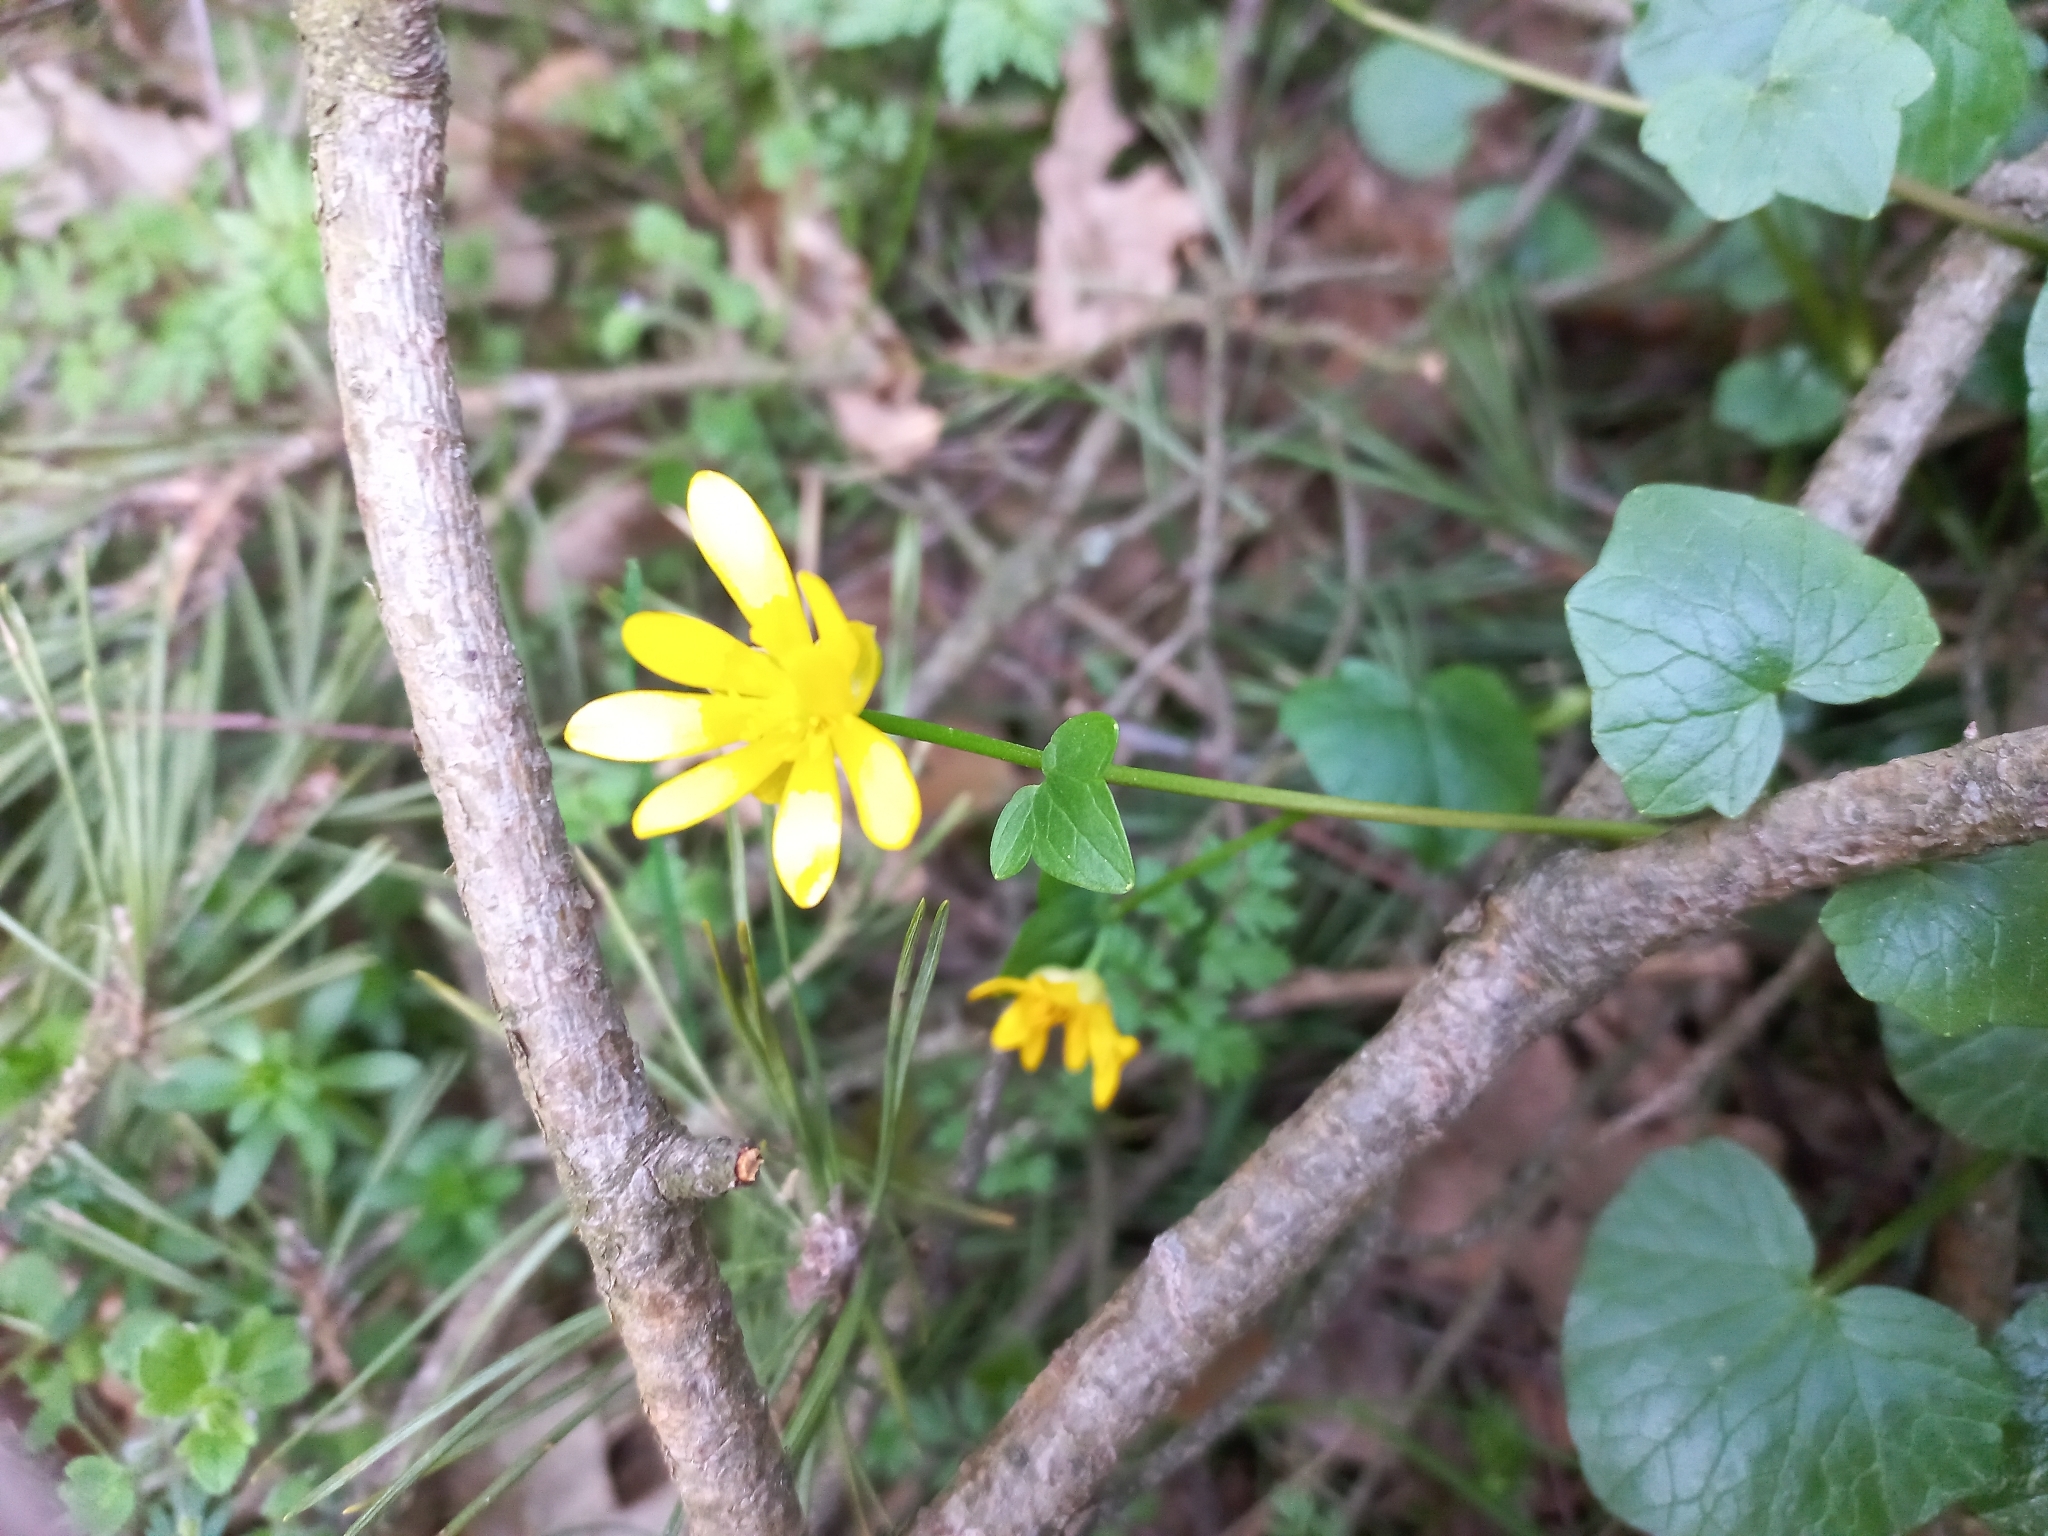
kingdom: Plantae
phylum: Tracheophyta
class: Magnoliopsida
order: Ranunculales
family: Ranunculaceae
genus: Ficaria
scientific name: Ficaria verna
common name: Lesser celandine
